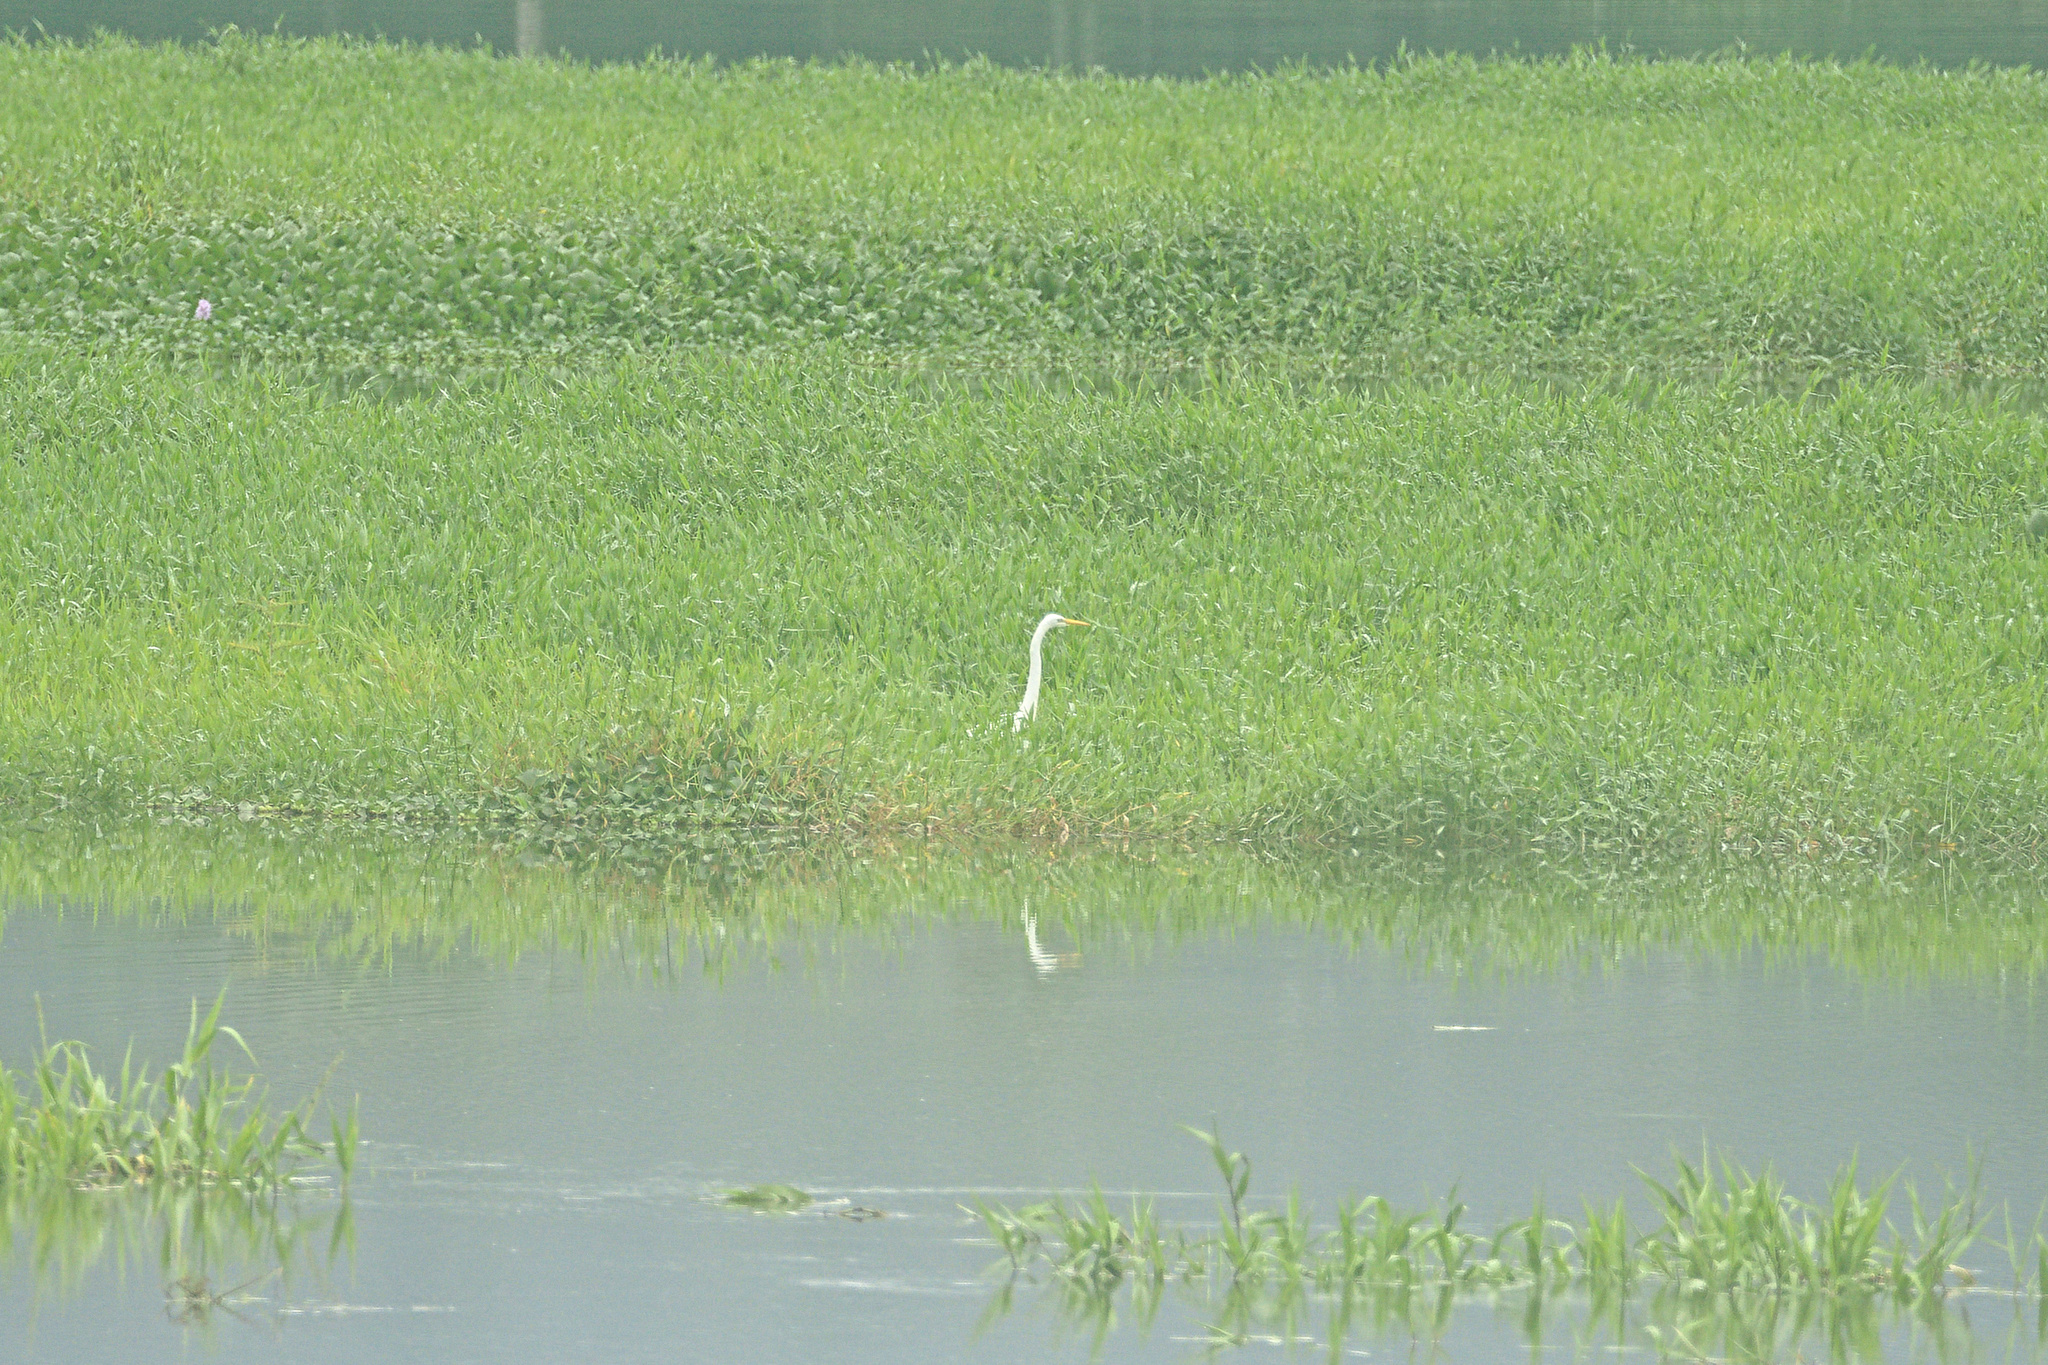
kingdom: Animalia
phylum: Chordata
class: Aves
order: Pelecaniformes
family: Ardeidae
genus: Ardea
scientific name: Ardea alba
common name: Great egret
